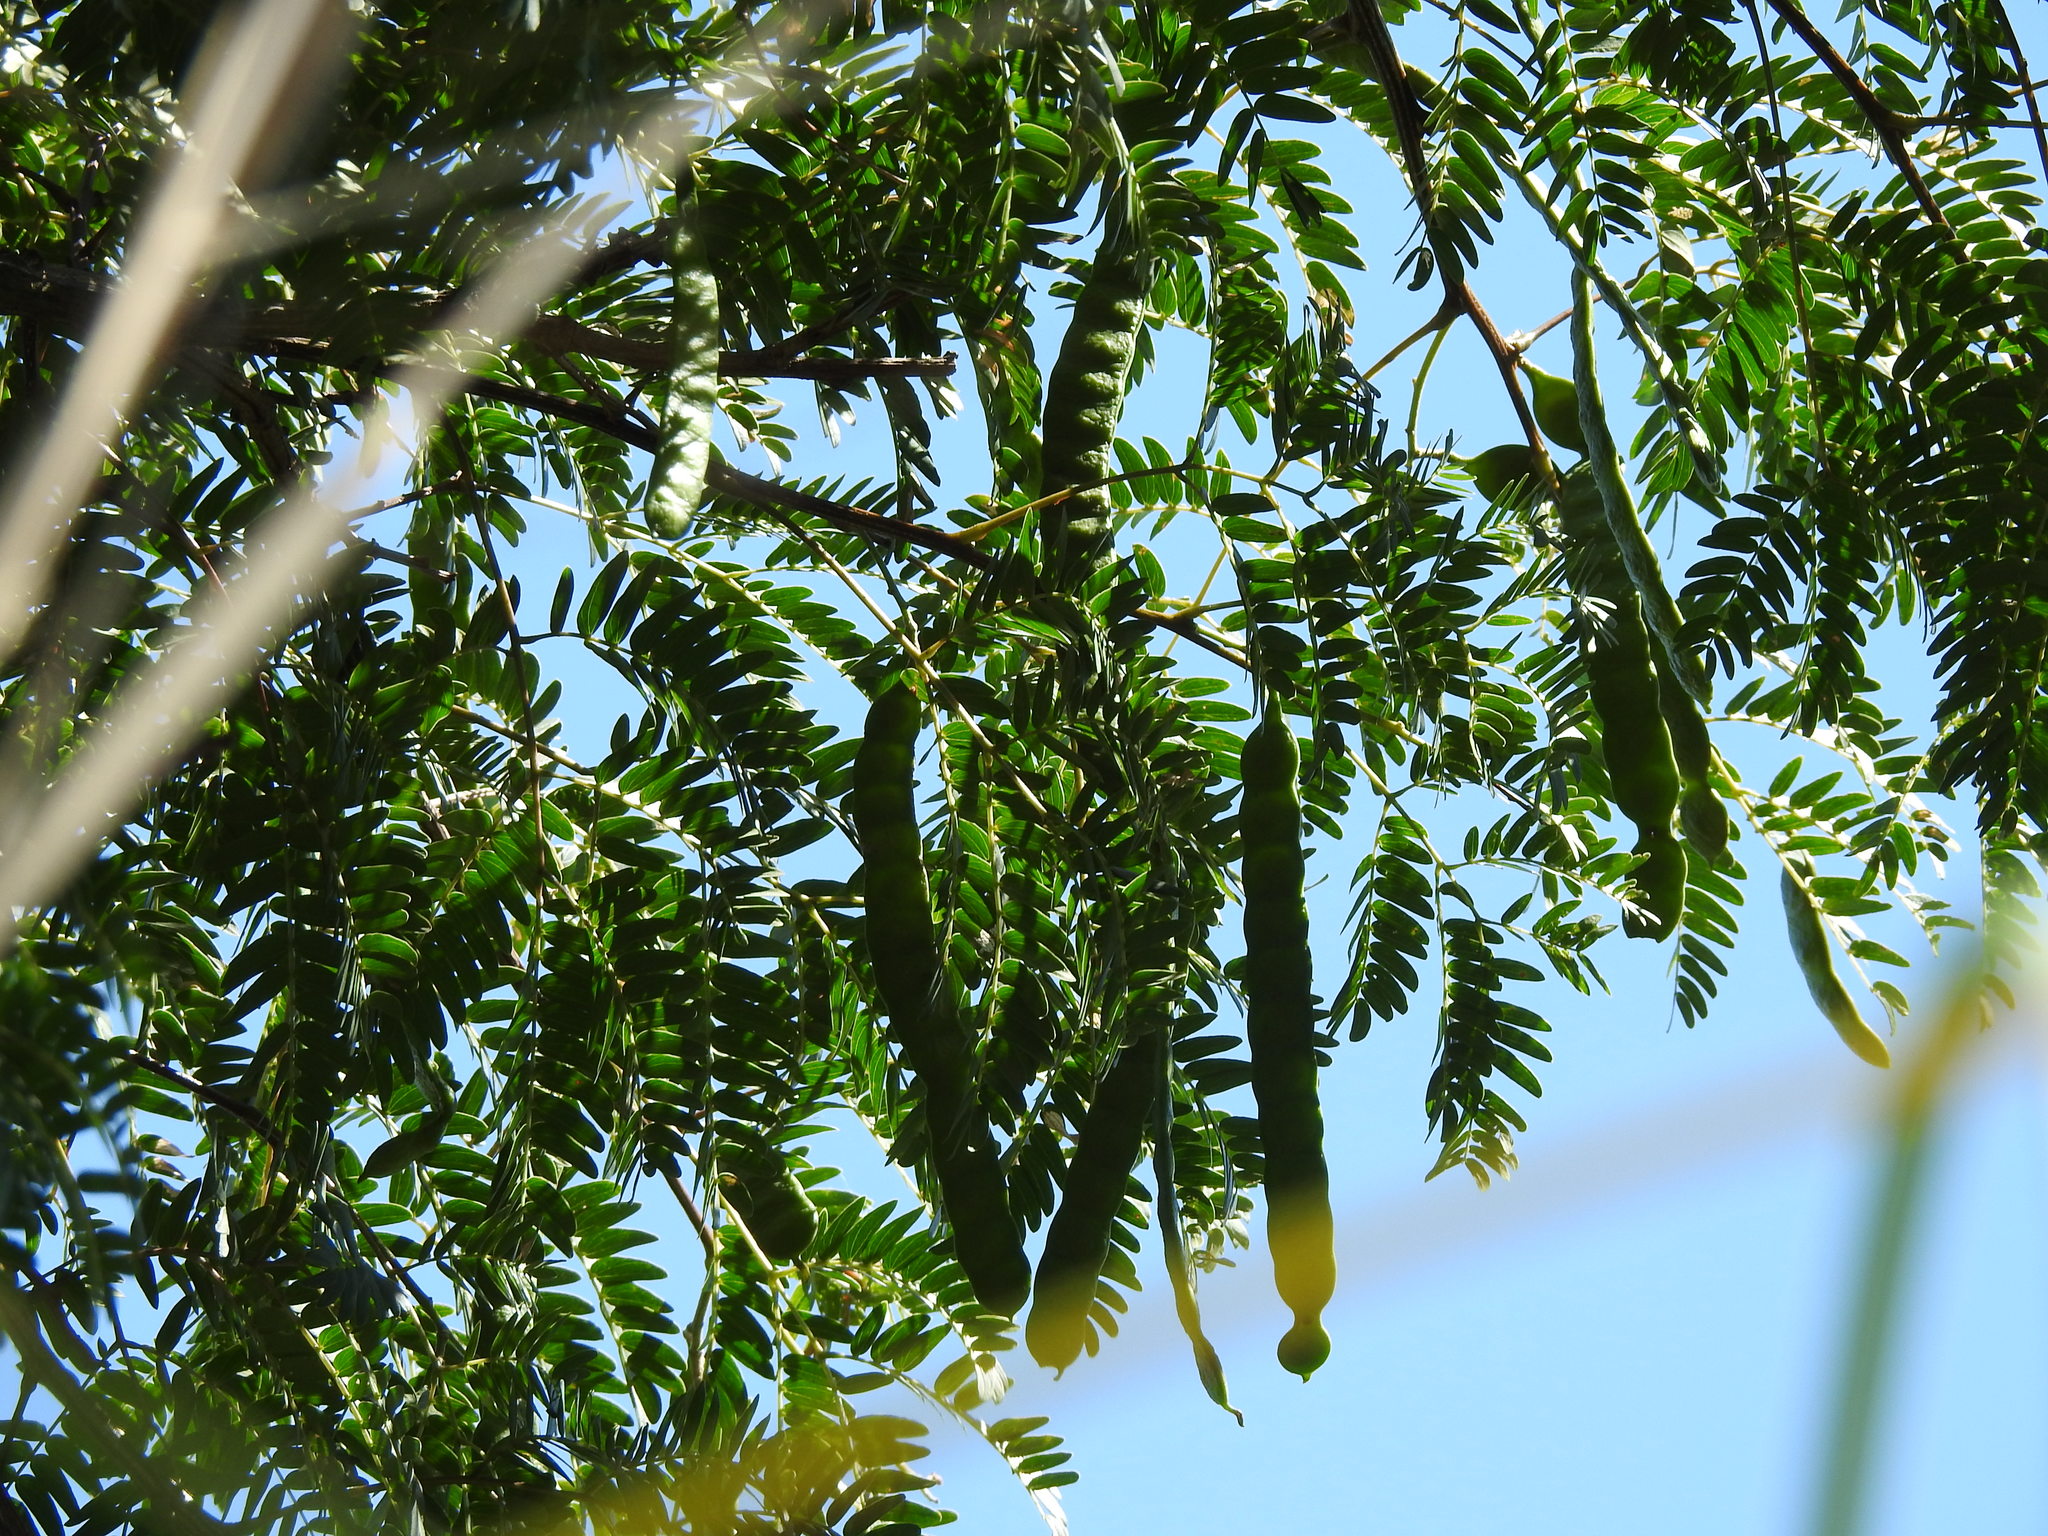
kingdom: Plantae
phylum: Tracheophyta
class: Magnoliopsida
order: Fabales
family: Fabaceae
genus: Albizia
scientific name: Albizia inundata
